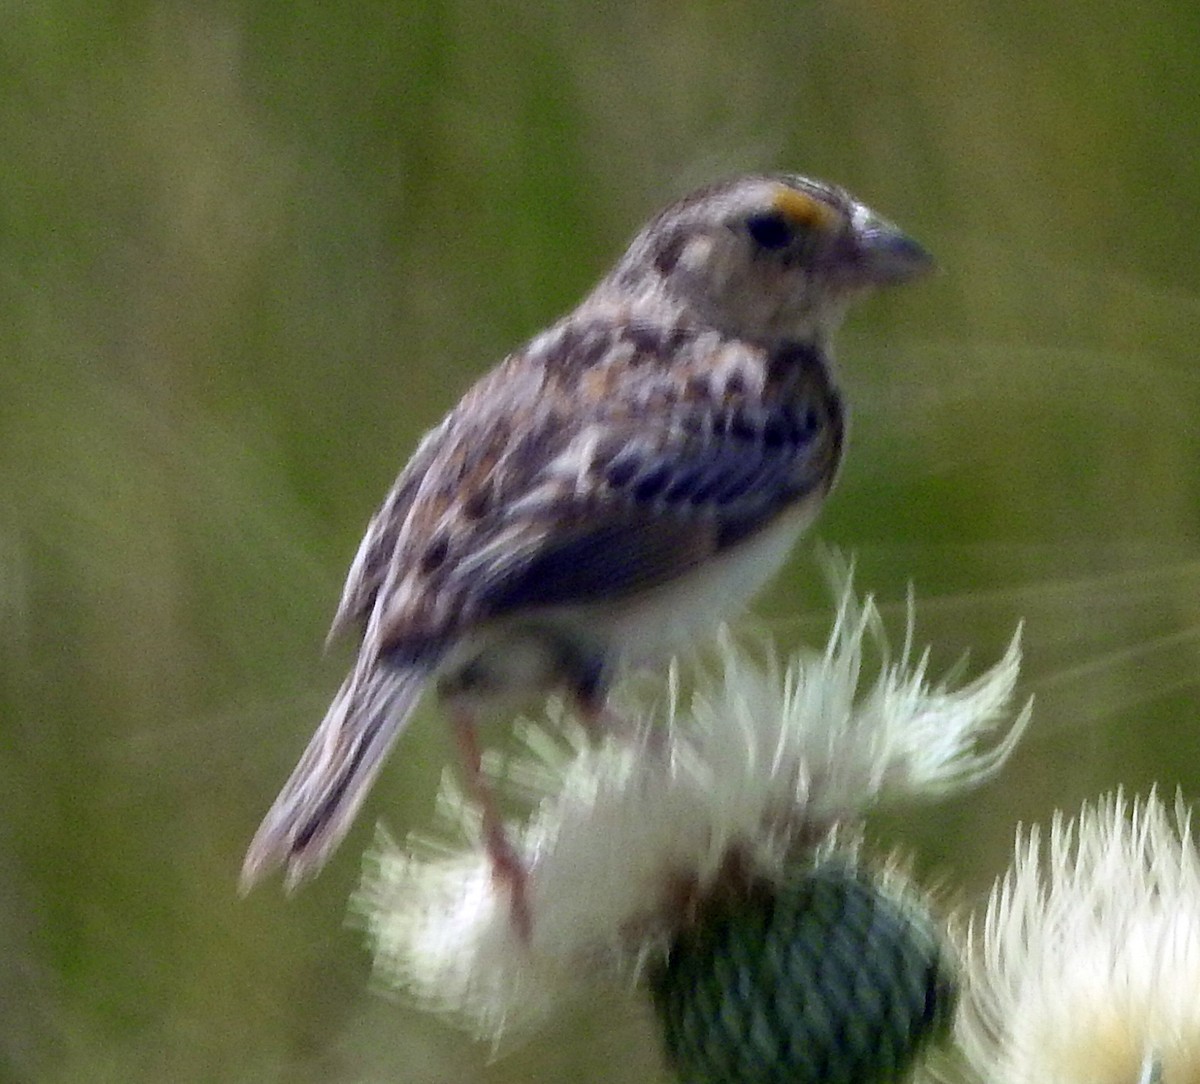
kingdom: Animalia
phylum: Chordata
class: Aves
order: Passeriformes
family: Passerellidae
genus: Ammodramus
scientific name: Ammodramus savannarum
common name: Grasshopper sparrow
